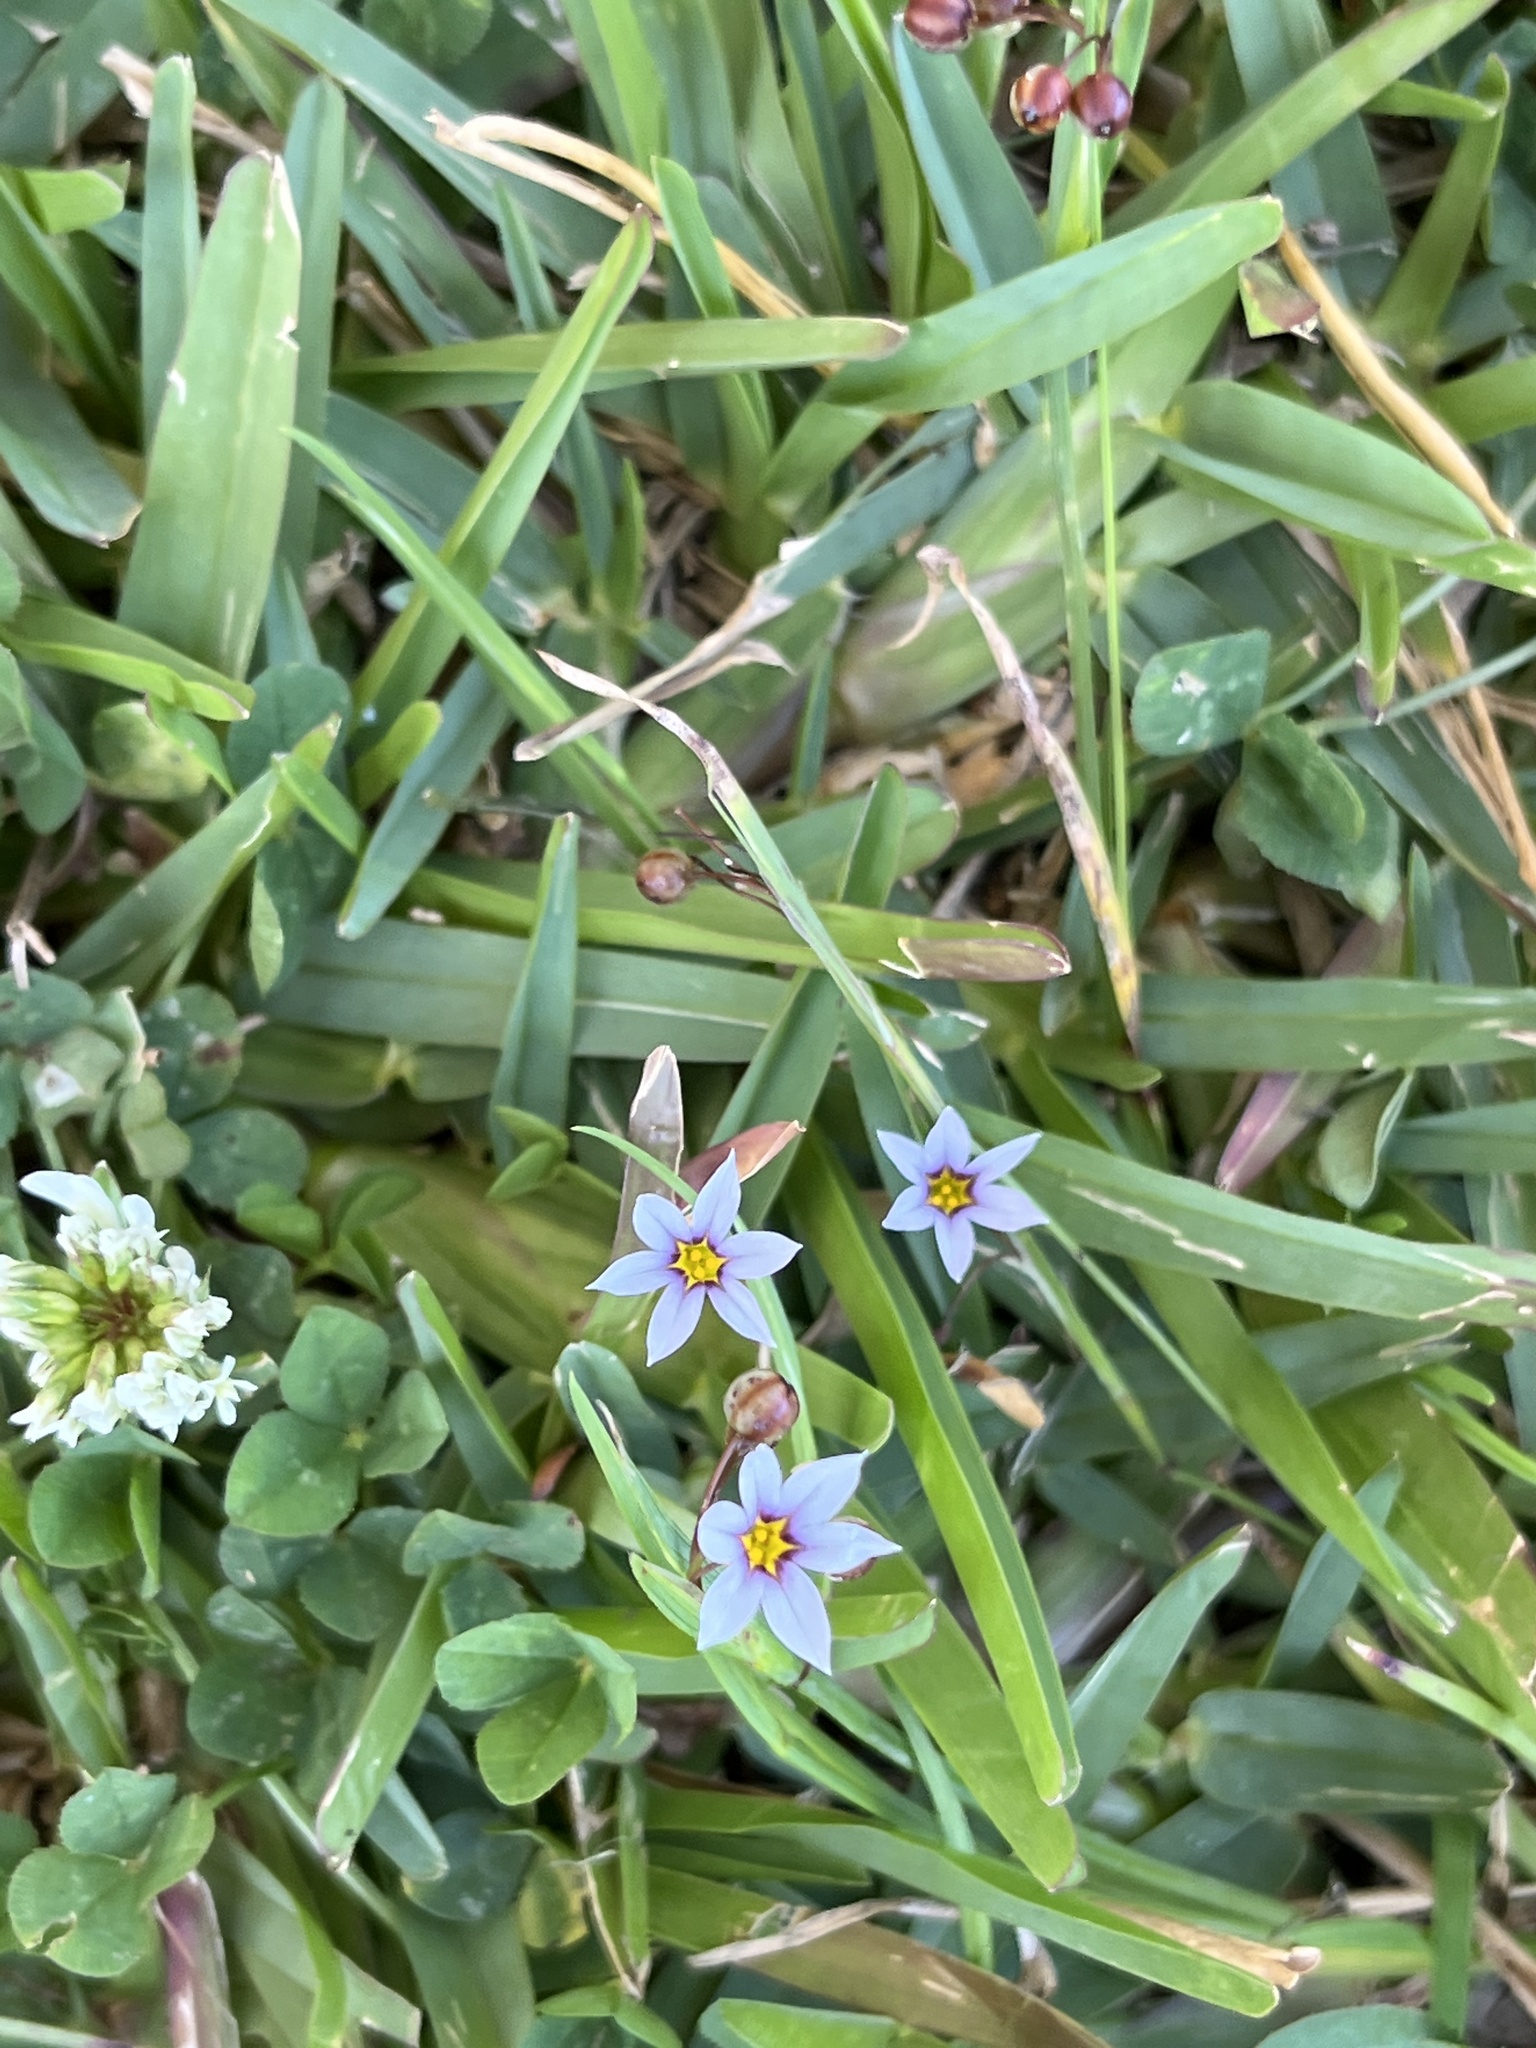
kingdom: Plantae
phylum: Tracheophyta
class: Liliopsida
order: Asparagales
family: Iridaceae
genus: Sisyrinchium
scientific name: Sisyrinchium micranthum
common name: Bermuda pigroot
